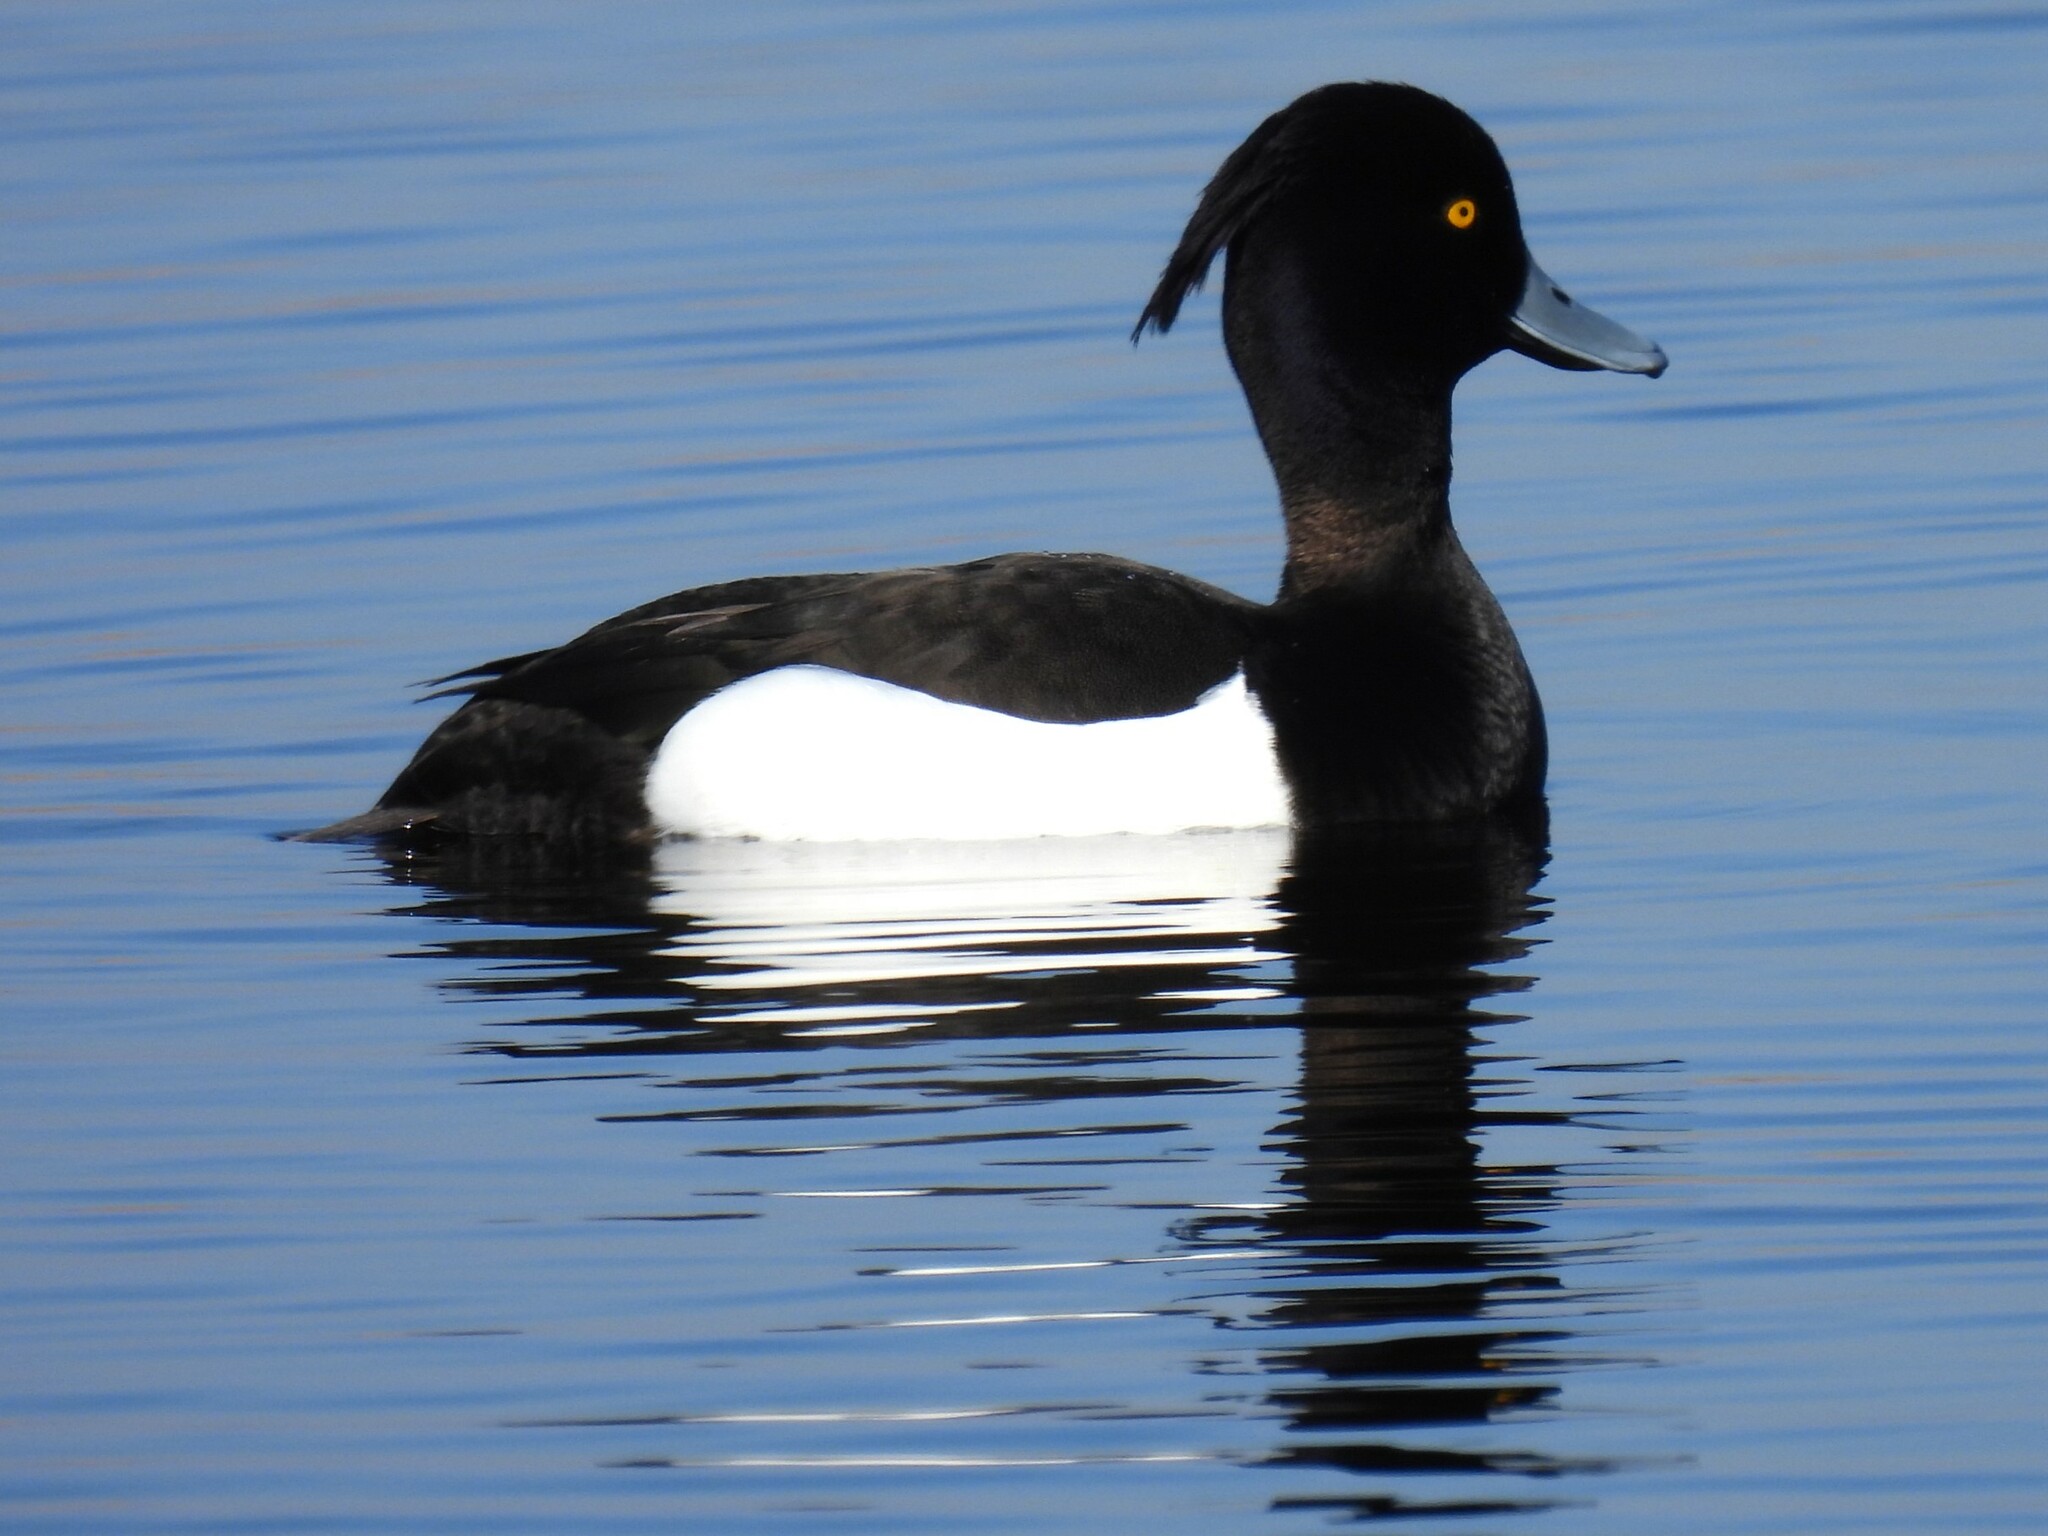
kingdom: Animalia
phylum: Chordata
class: Aves
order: Anseriformes
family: Anatidae
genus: Aythya
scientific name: Aythya fuligula
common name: Tufted duck
